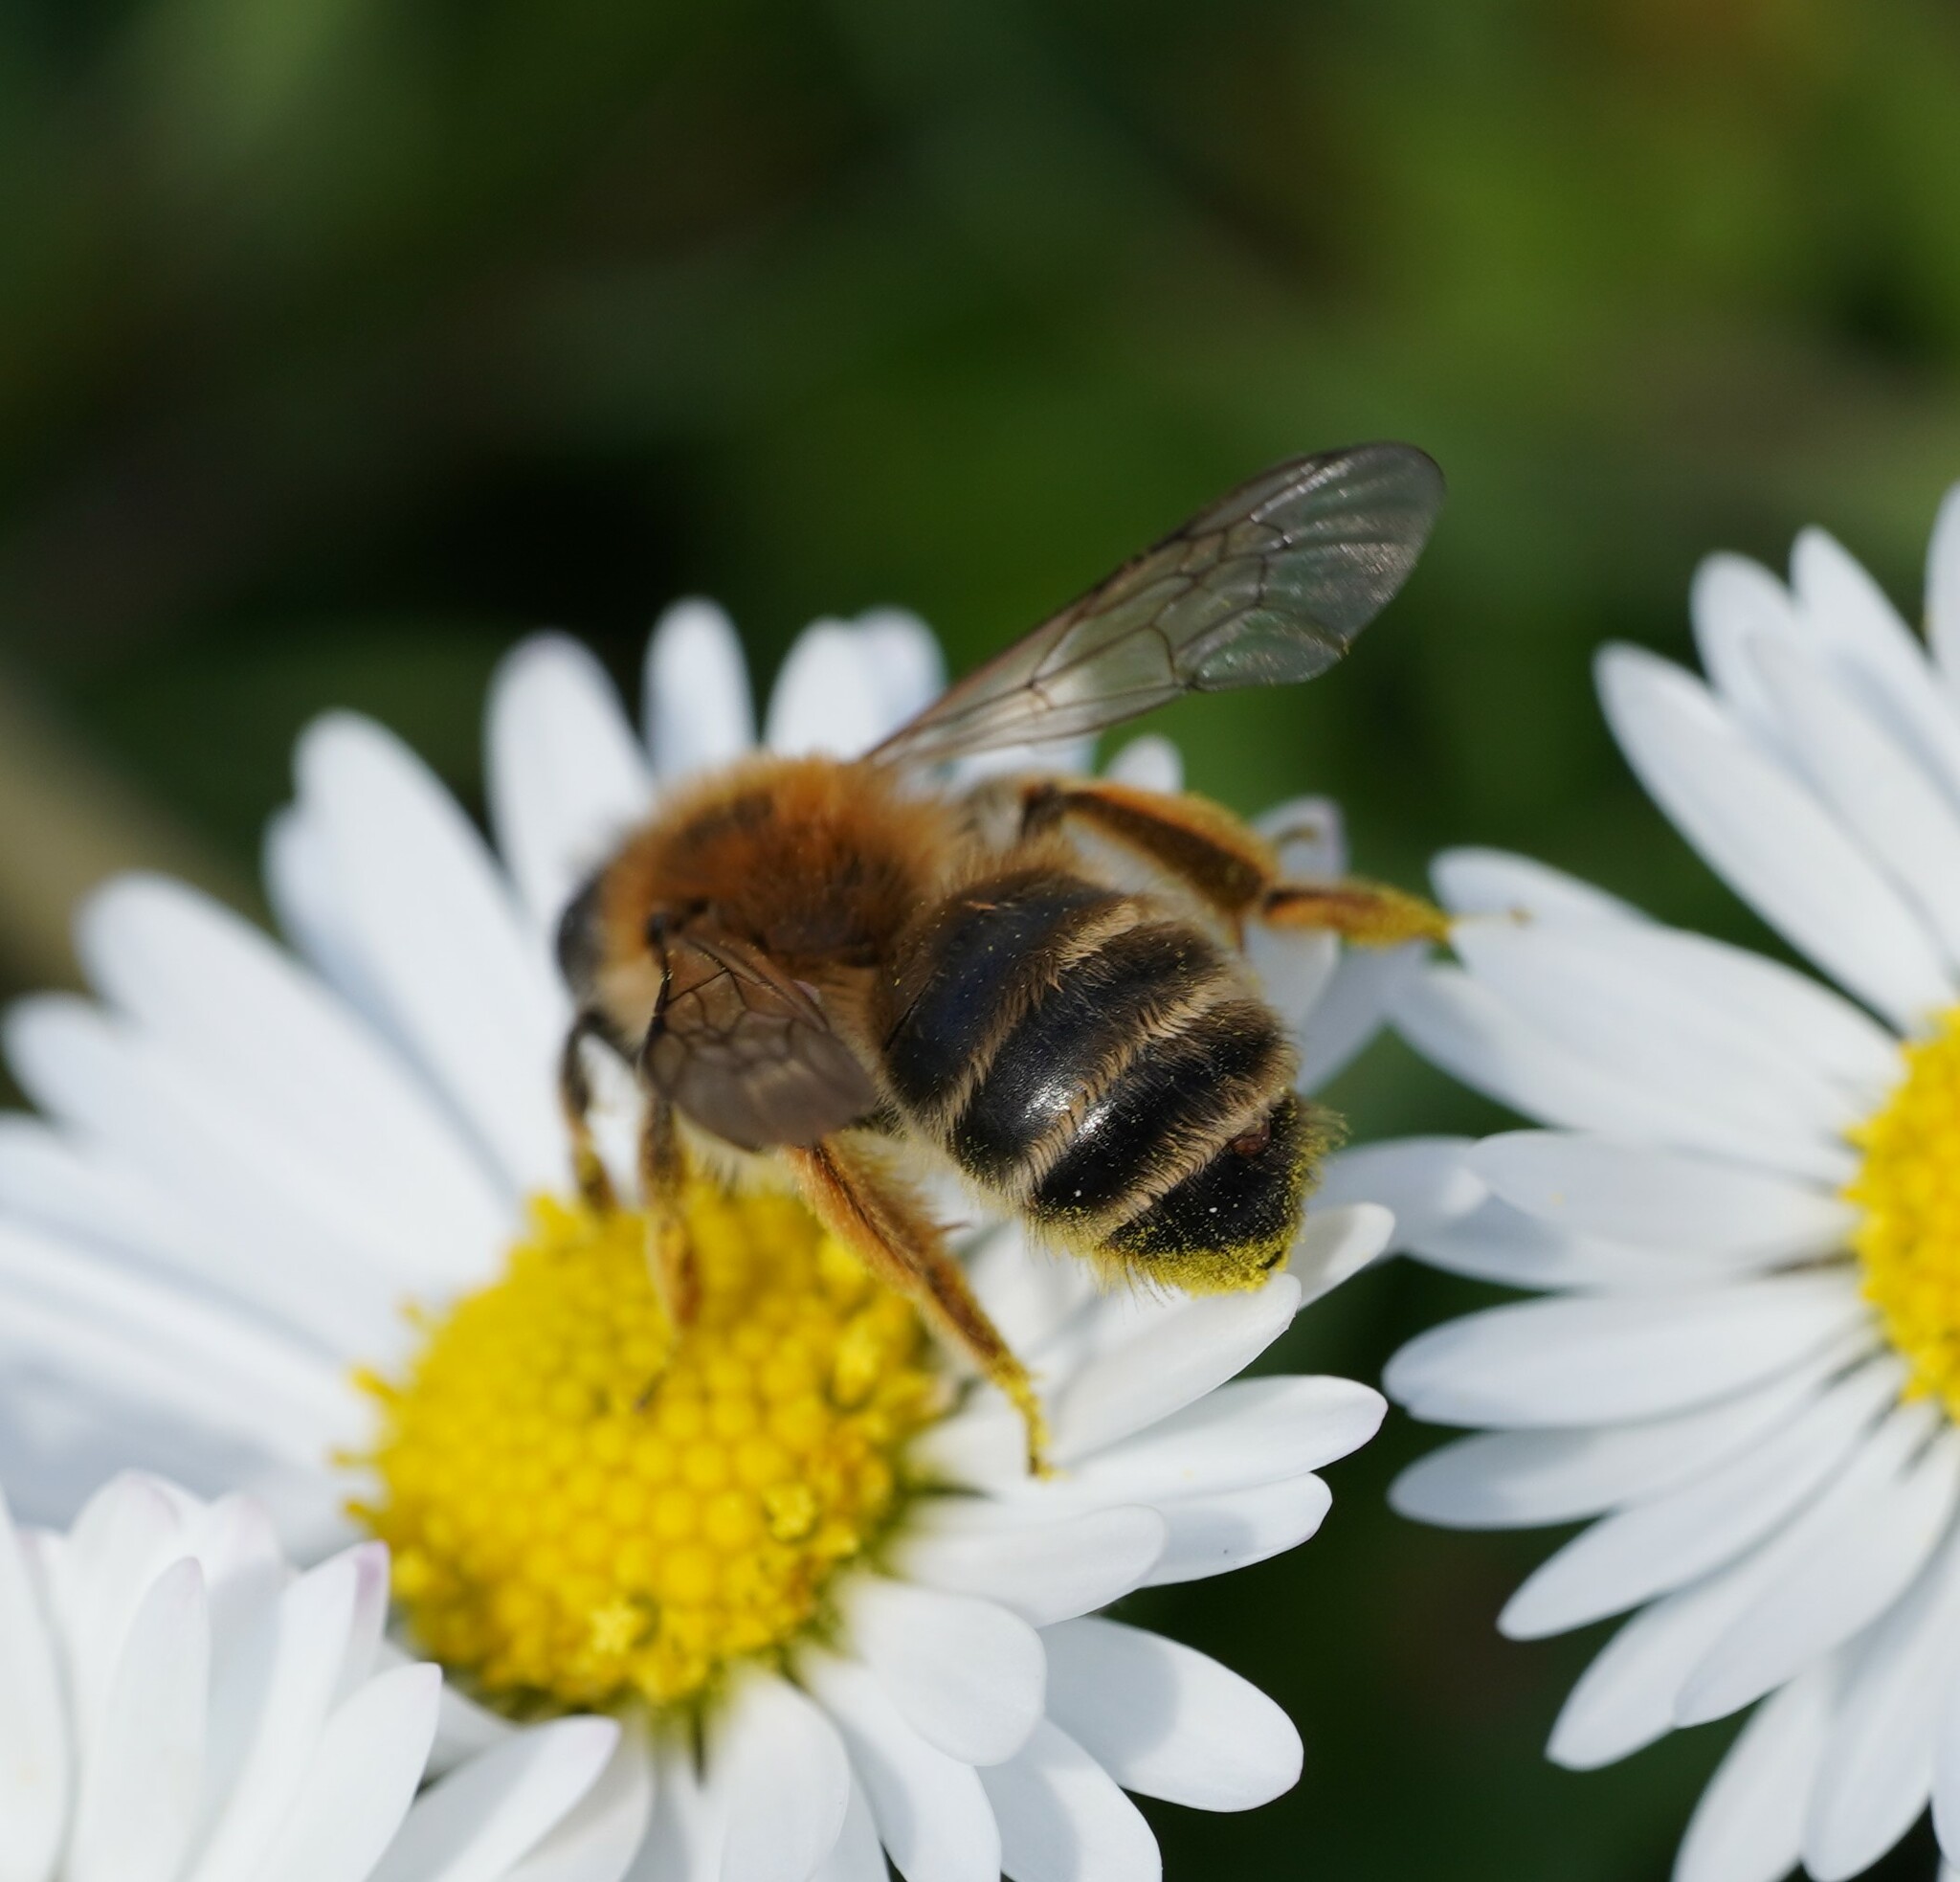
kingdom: Animalia
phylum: Arthropoda
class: Insecta
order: Hymenoptera
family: Andrenidae
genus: Andrena
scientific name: Andrena gravida
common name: White-bellied mining bee
